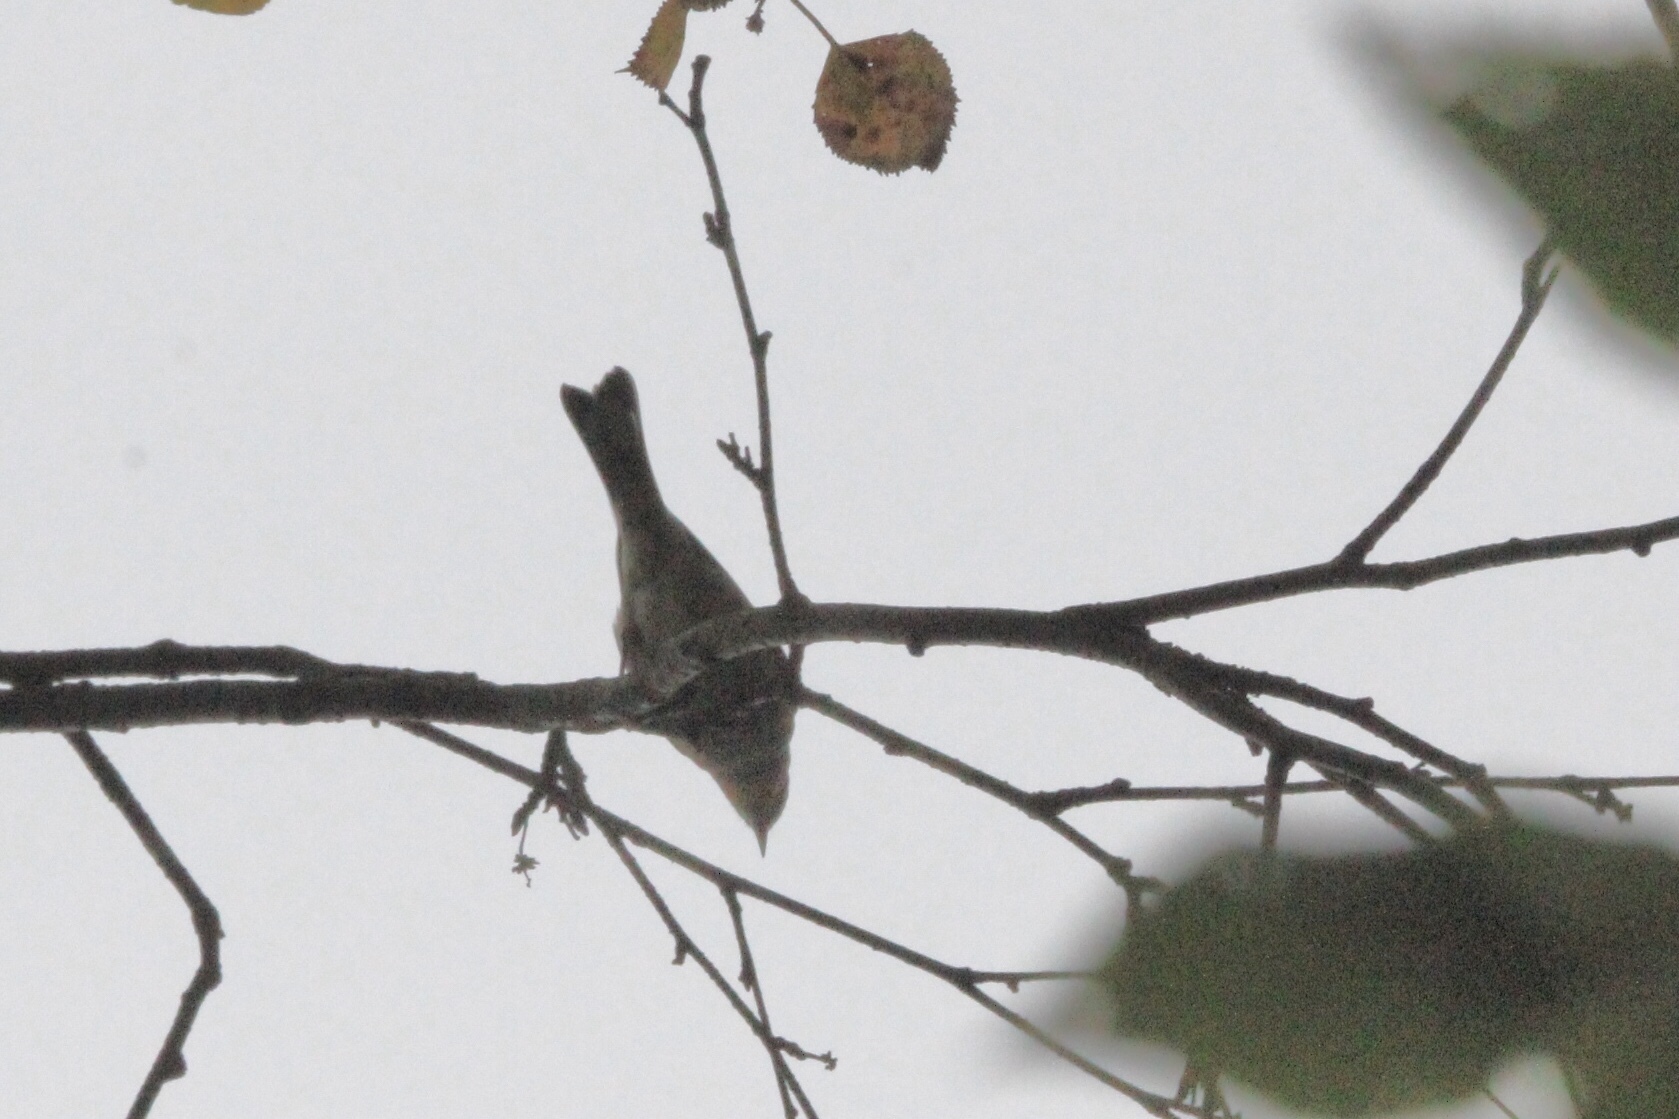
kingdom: Animalia
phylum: Chordata
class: Aves
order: Passeriformes
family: Parulidae
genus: Setophaga
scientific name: Setophaga coronata
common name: Myrtle warbler
